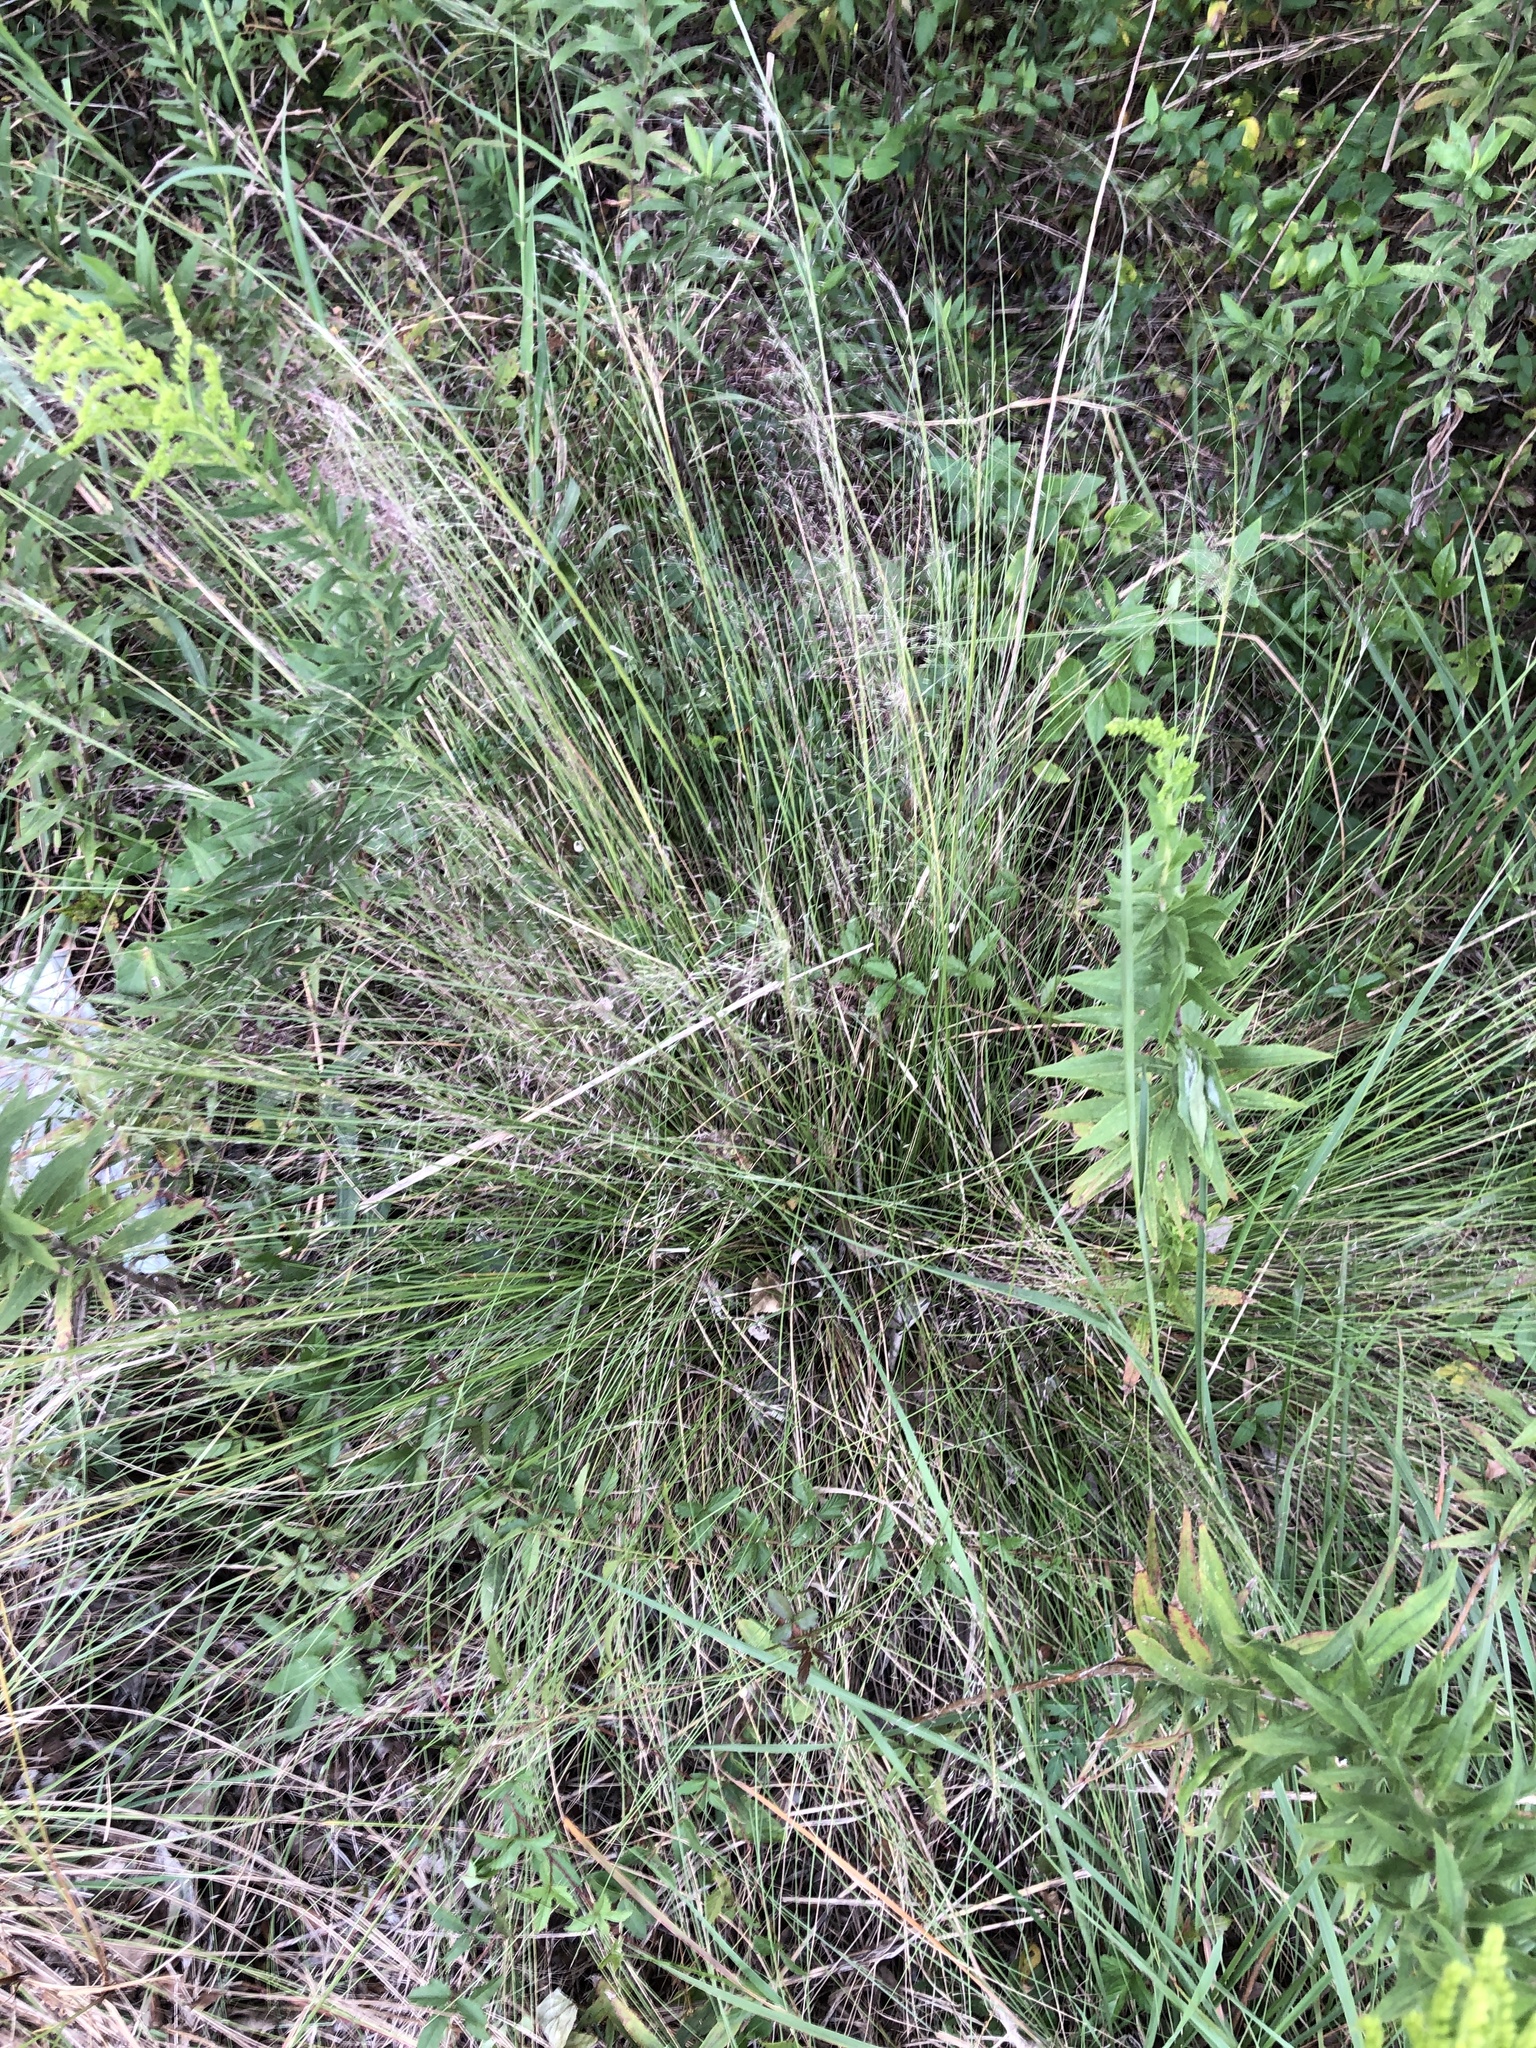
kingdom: Plantae
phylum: Tracheophyta
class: Liliopsida
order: Poales
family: Poaceae
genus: Muhlenbergia
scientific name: Muhlenbergia capillaris
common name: Purple grass
